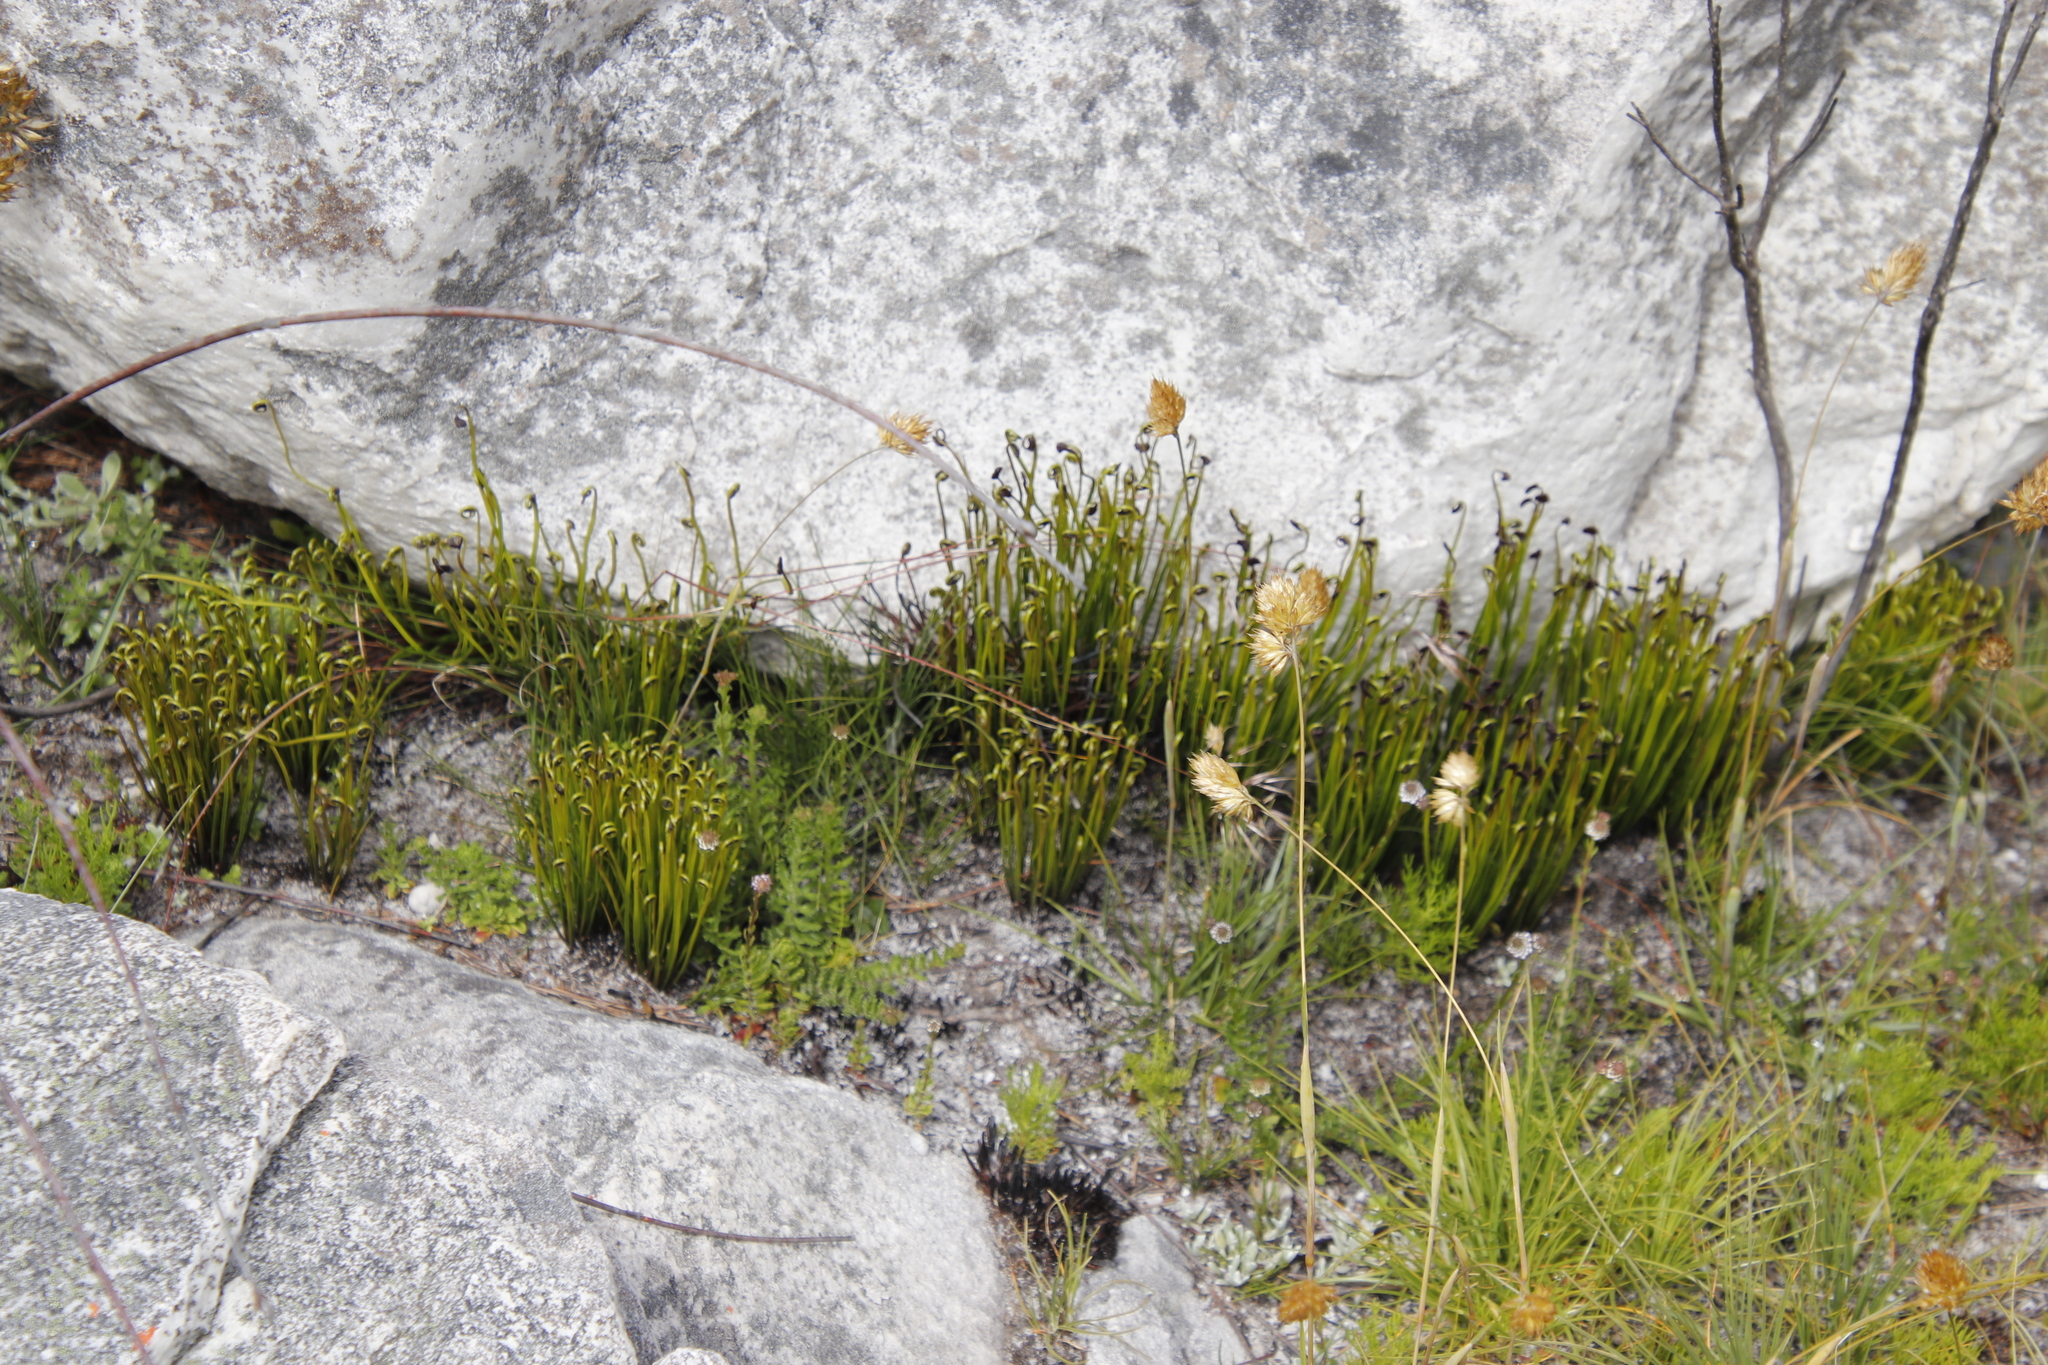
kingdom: Plantae
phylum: Tracheophyta
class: Polypodiopsida
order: Schizaeales
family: Schizaeaceae
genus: Schizaea
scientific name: Schizaea pectinata
